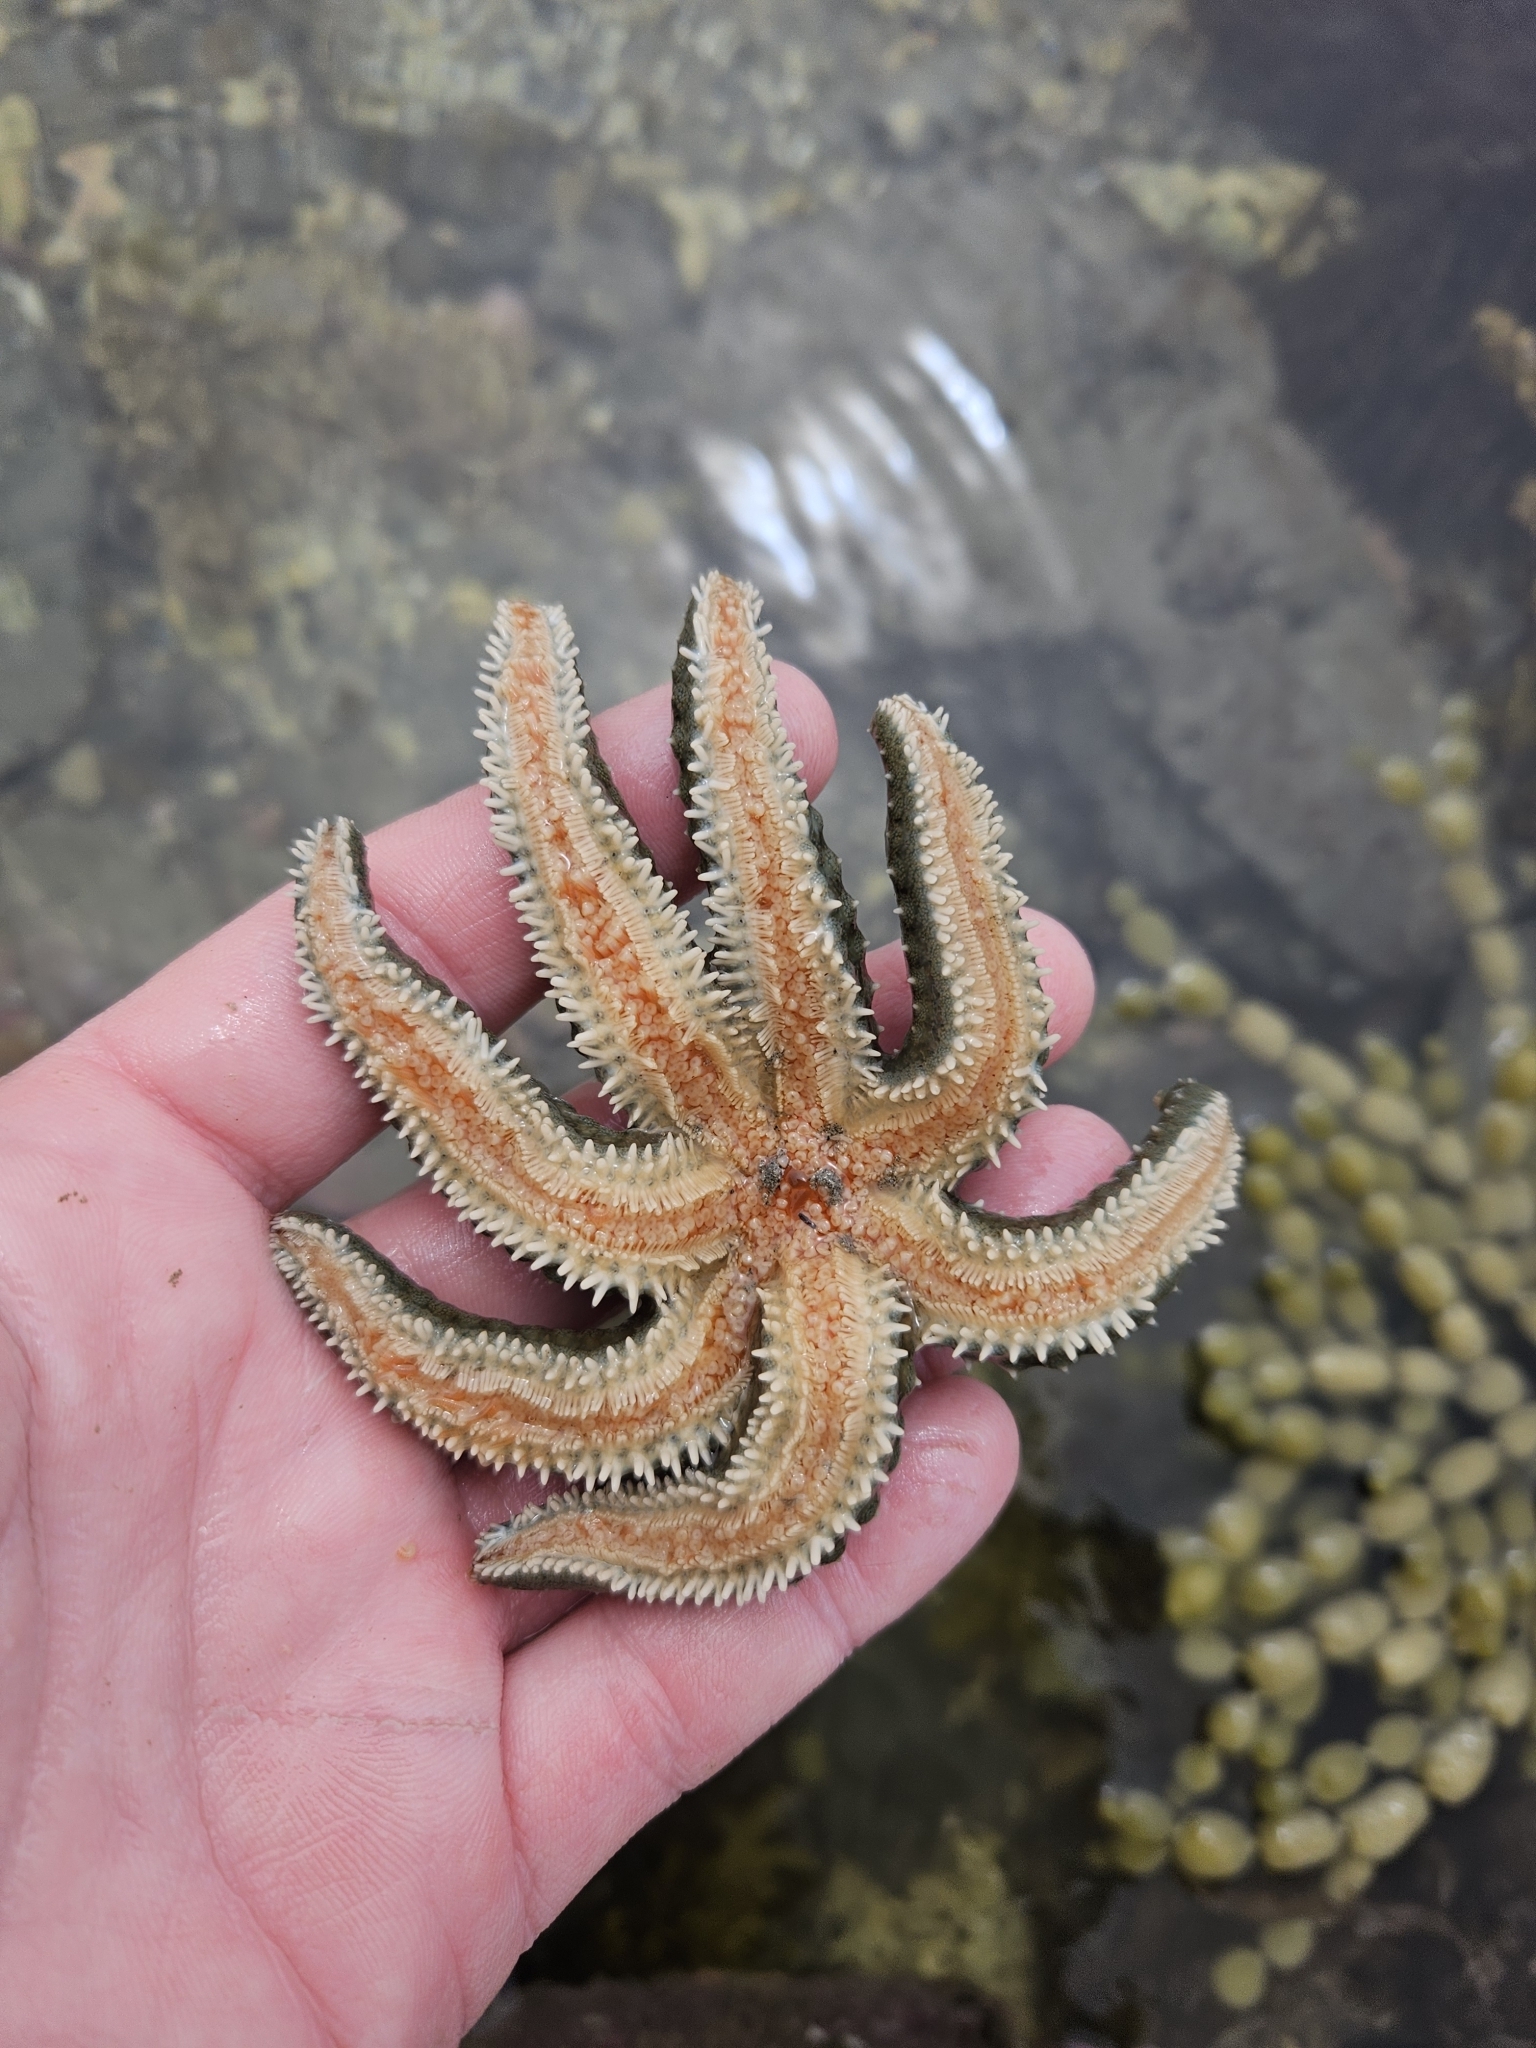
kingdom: Animalia
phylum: Echinodermata
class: Asteroidea
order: Forcipulatida
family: Asteriidae
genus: Astrostole
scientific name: Astrostole scabra
